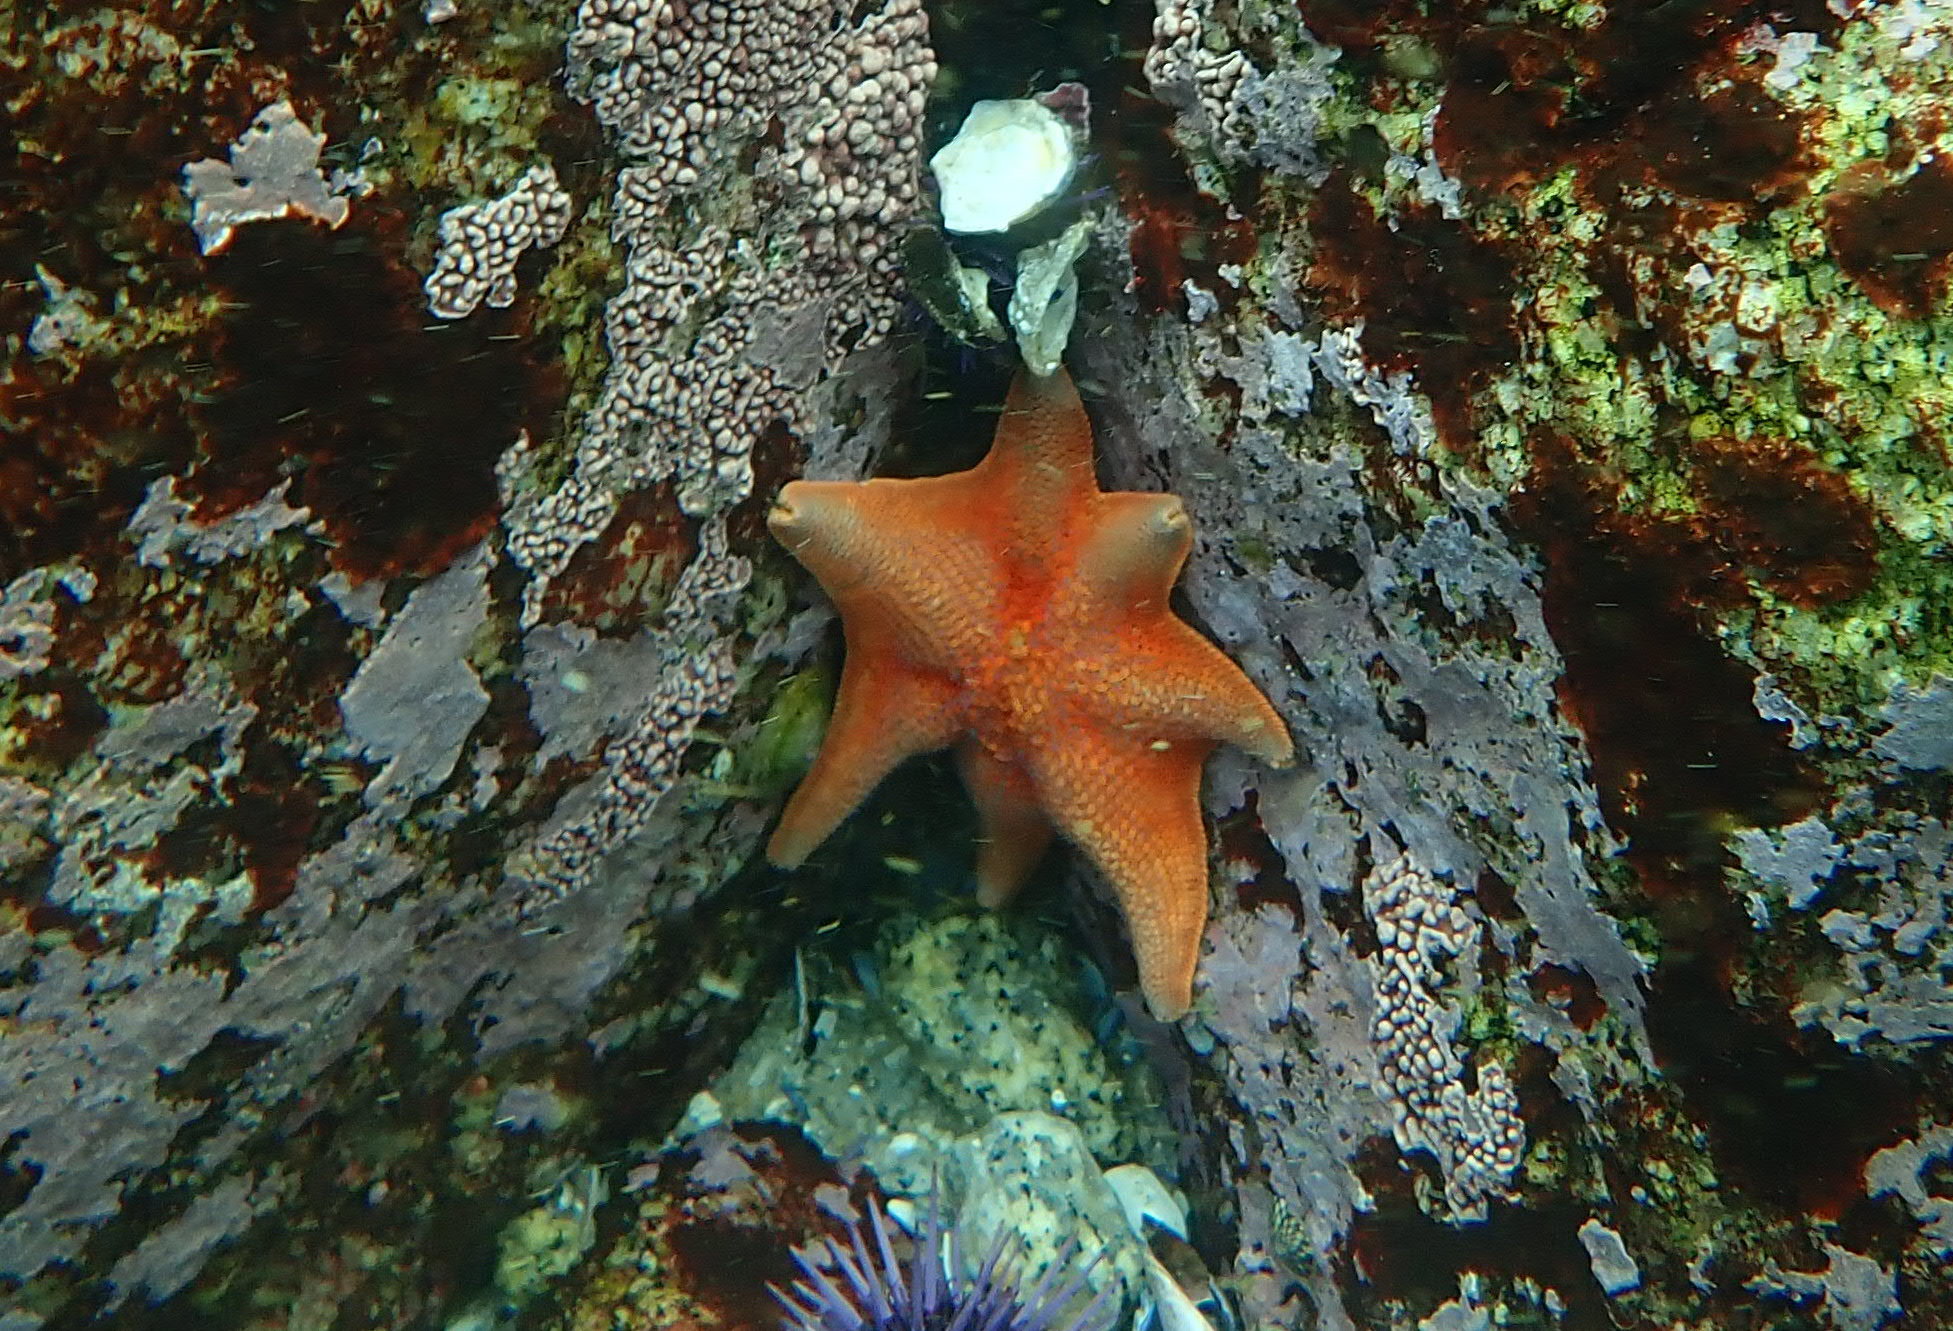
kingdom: Animalia
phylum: Echinodermata
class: Asteroidea
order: Valvatida
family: Asterinidae
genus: Patiria
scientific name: Patiria miniata
